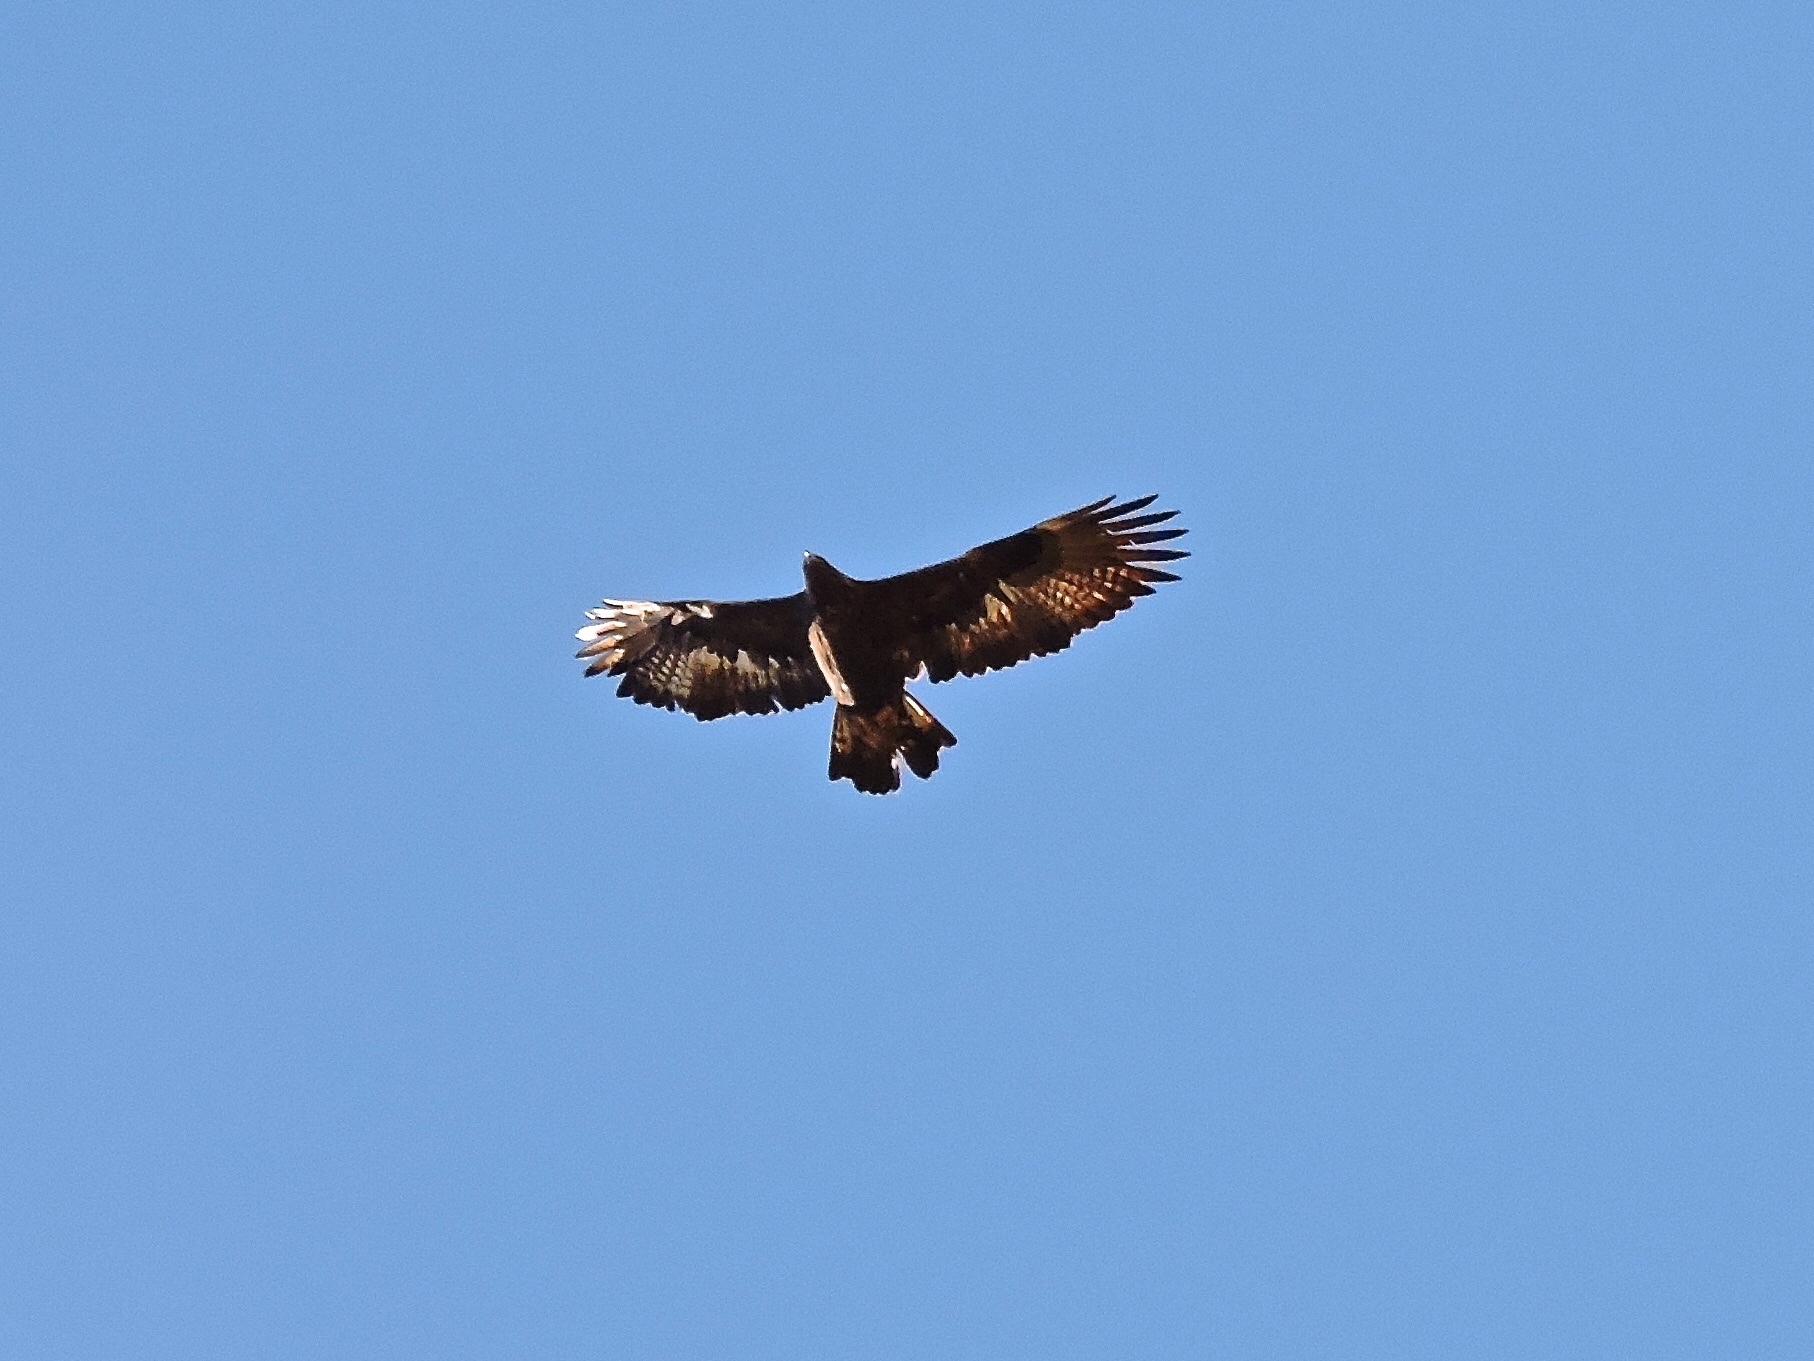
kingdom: Animalia
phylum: Chordata
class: Aves
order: Accipitriformes
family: Accipitridae
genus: Aquila
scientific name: Aquila chrysaetos
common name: Golden eagle
